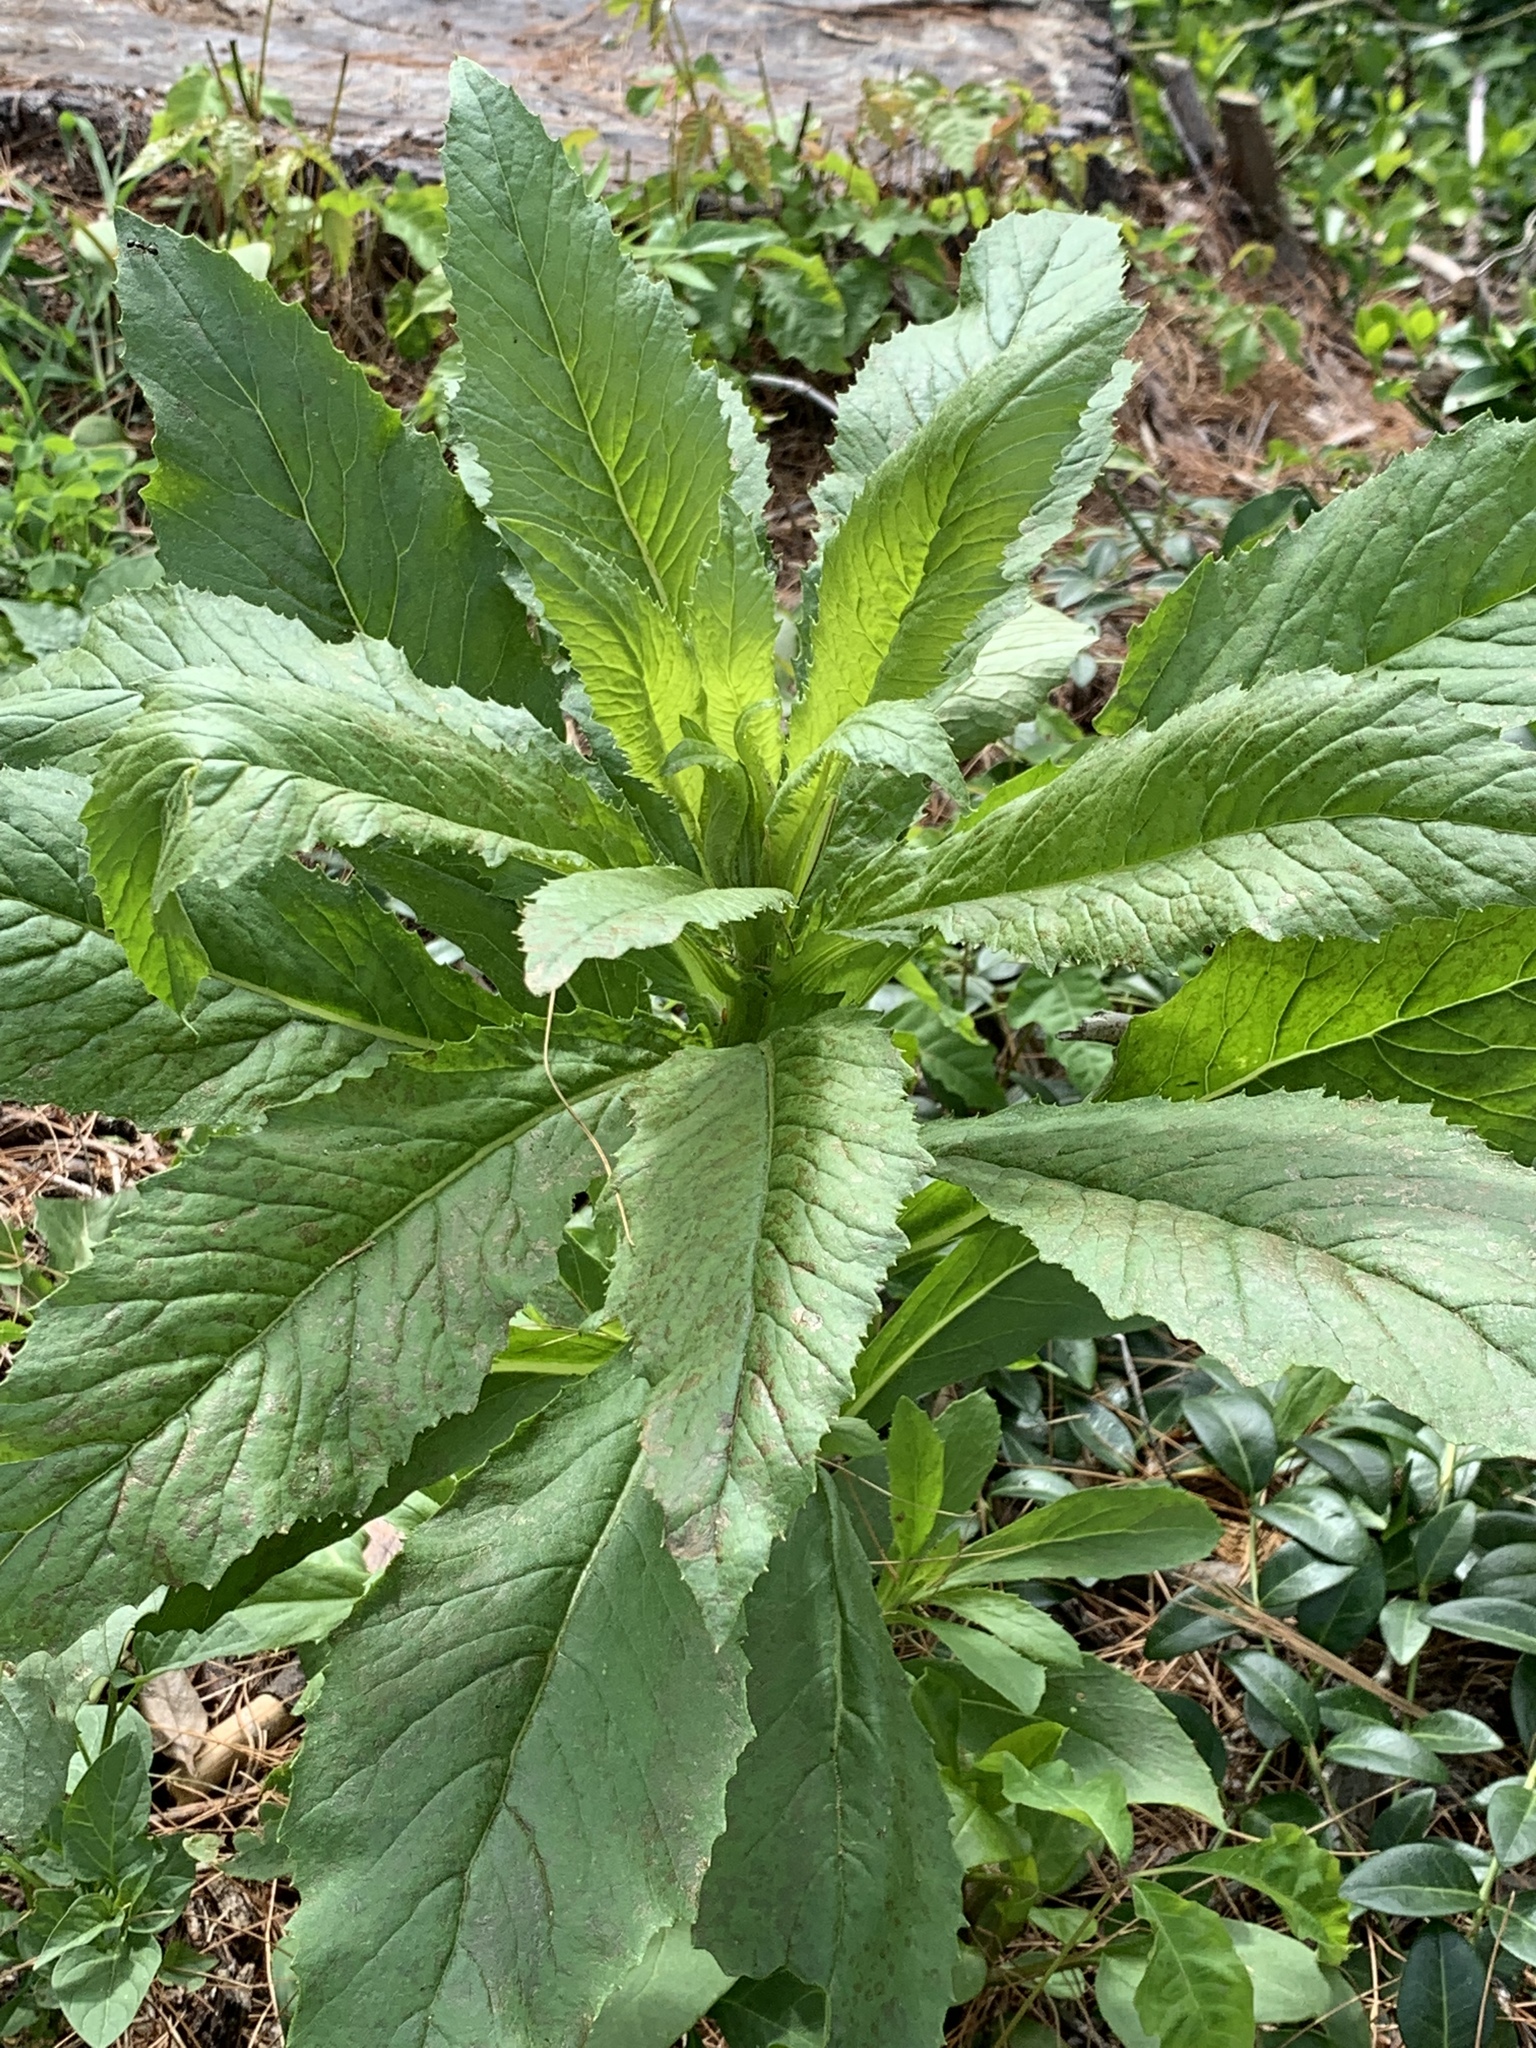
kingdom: Plantae
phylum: Tracheophyta
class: Magnoliopsida
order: Asterales
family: Asteraceae
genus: Erechtites
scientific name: Erechtites hieraciifolius
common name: American burnweed
